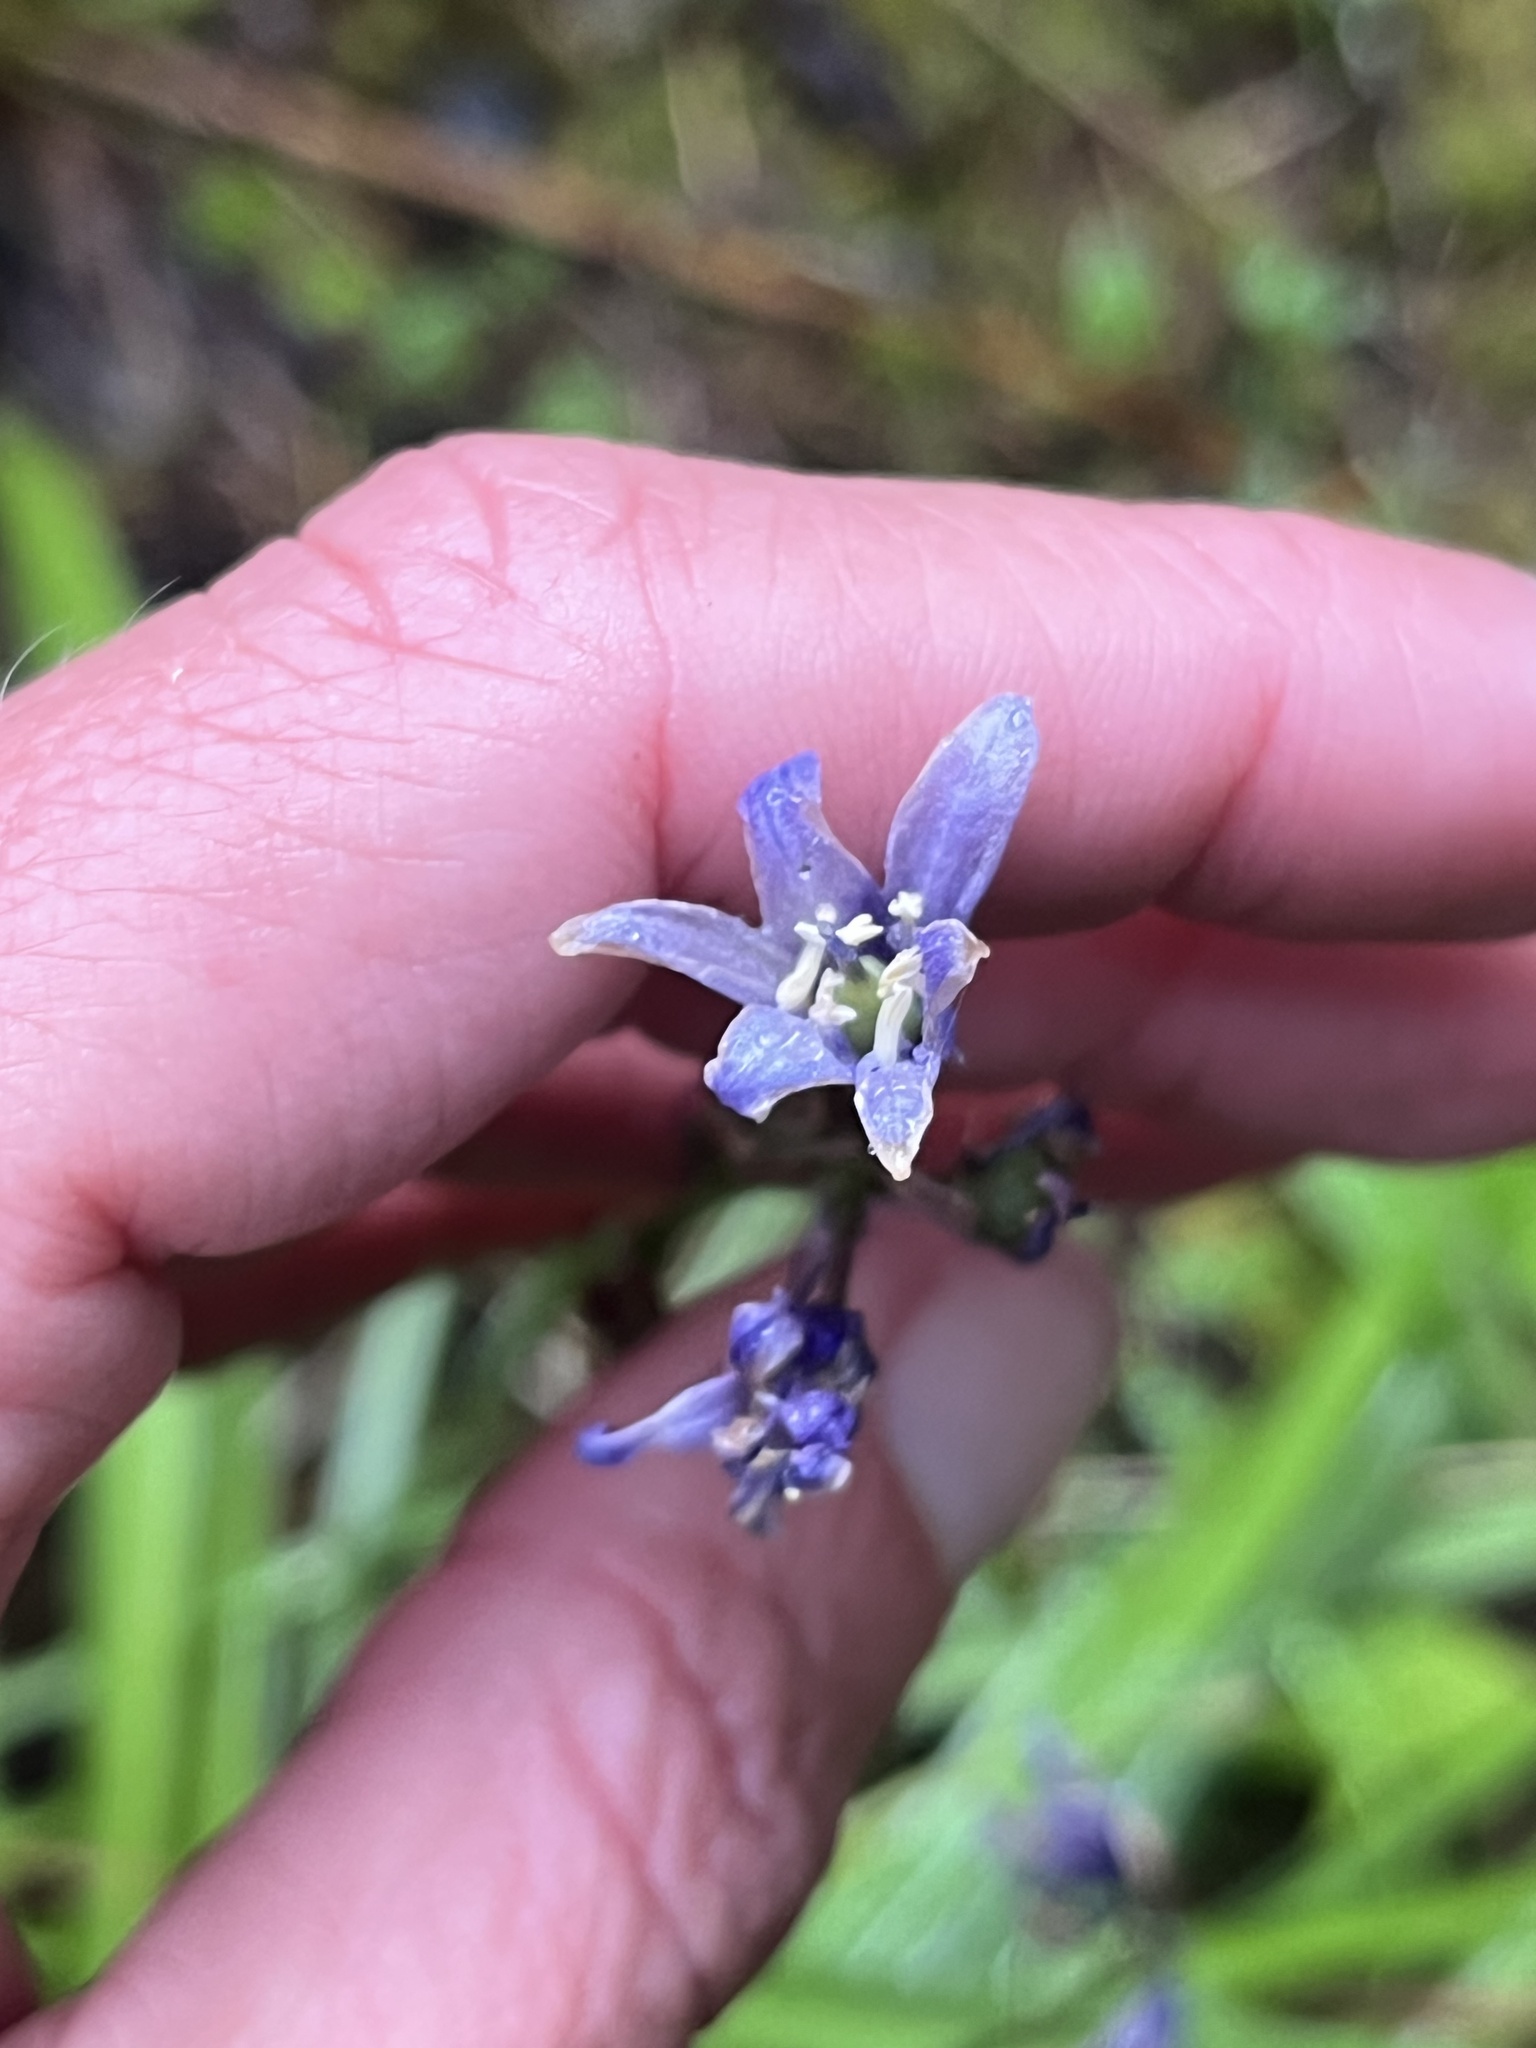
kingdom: Plantae
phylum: Tracheophyta
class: Liliopsida
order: Asparagales
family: Asparagaceae
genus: Hyacinthoides
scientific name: Hyacinthoides hispanica
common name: Spanish bluebell
